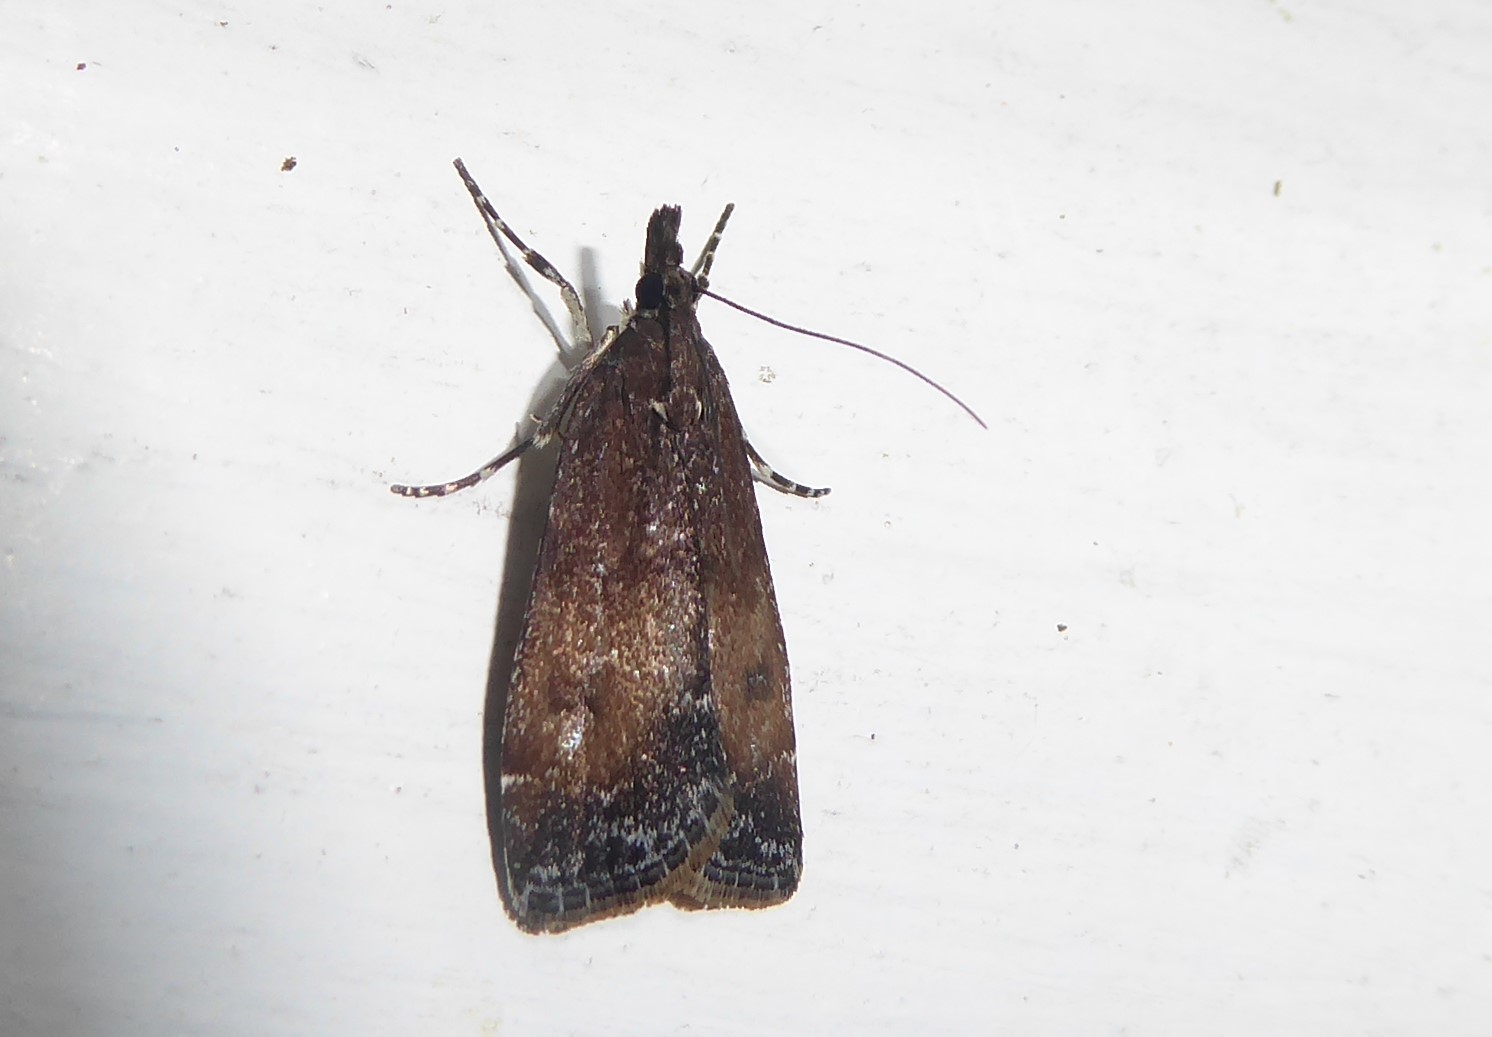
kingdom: Animalia
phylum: Arthropoda
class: Insecta
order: Lepidoptera
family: Crambidae
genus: Eudonia
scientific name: Eudonia asterisca
